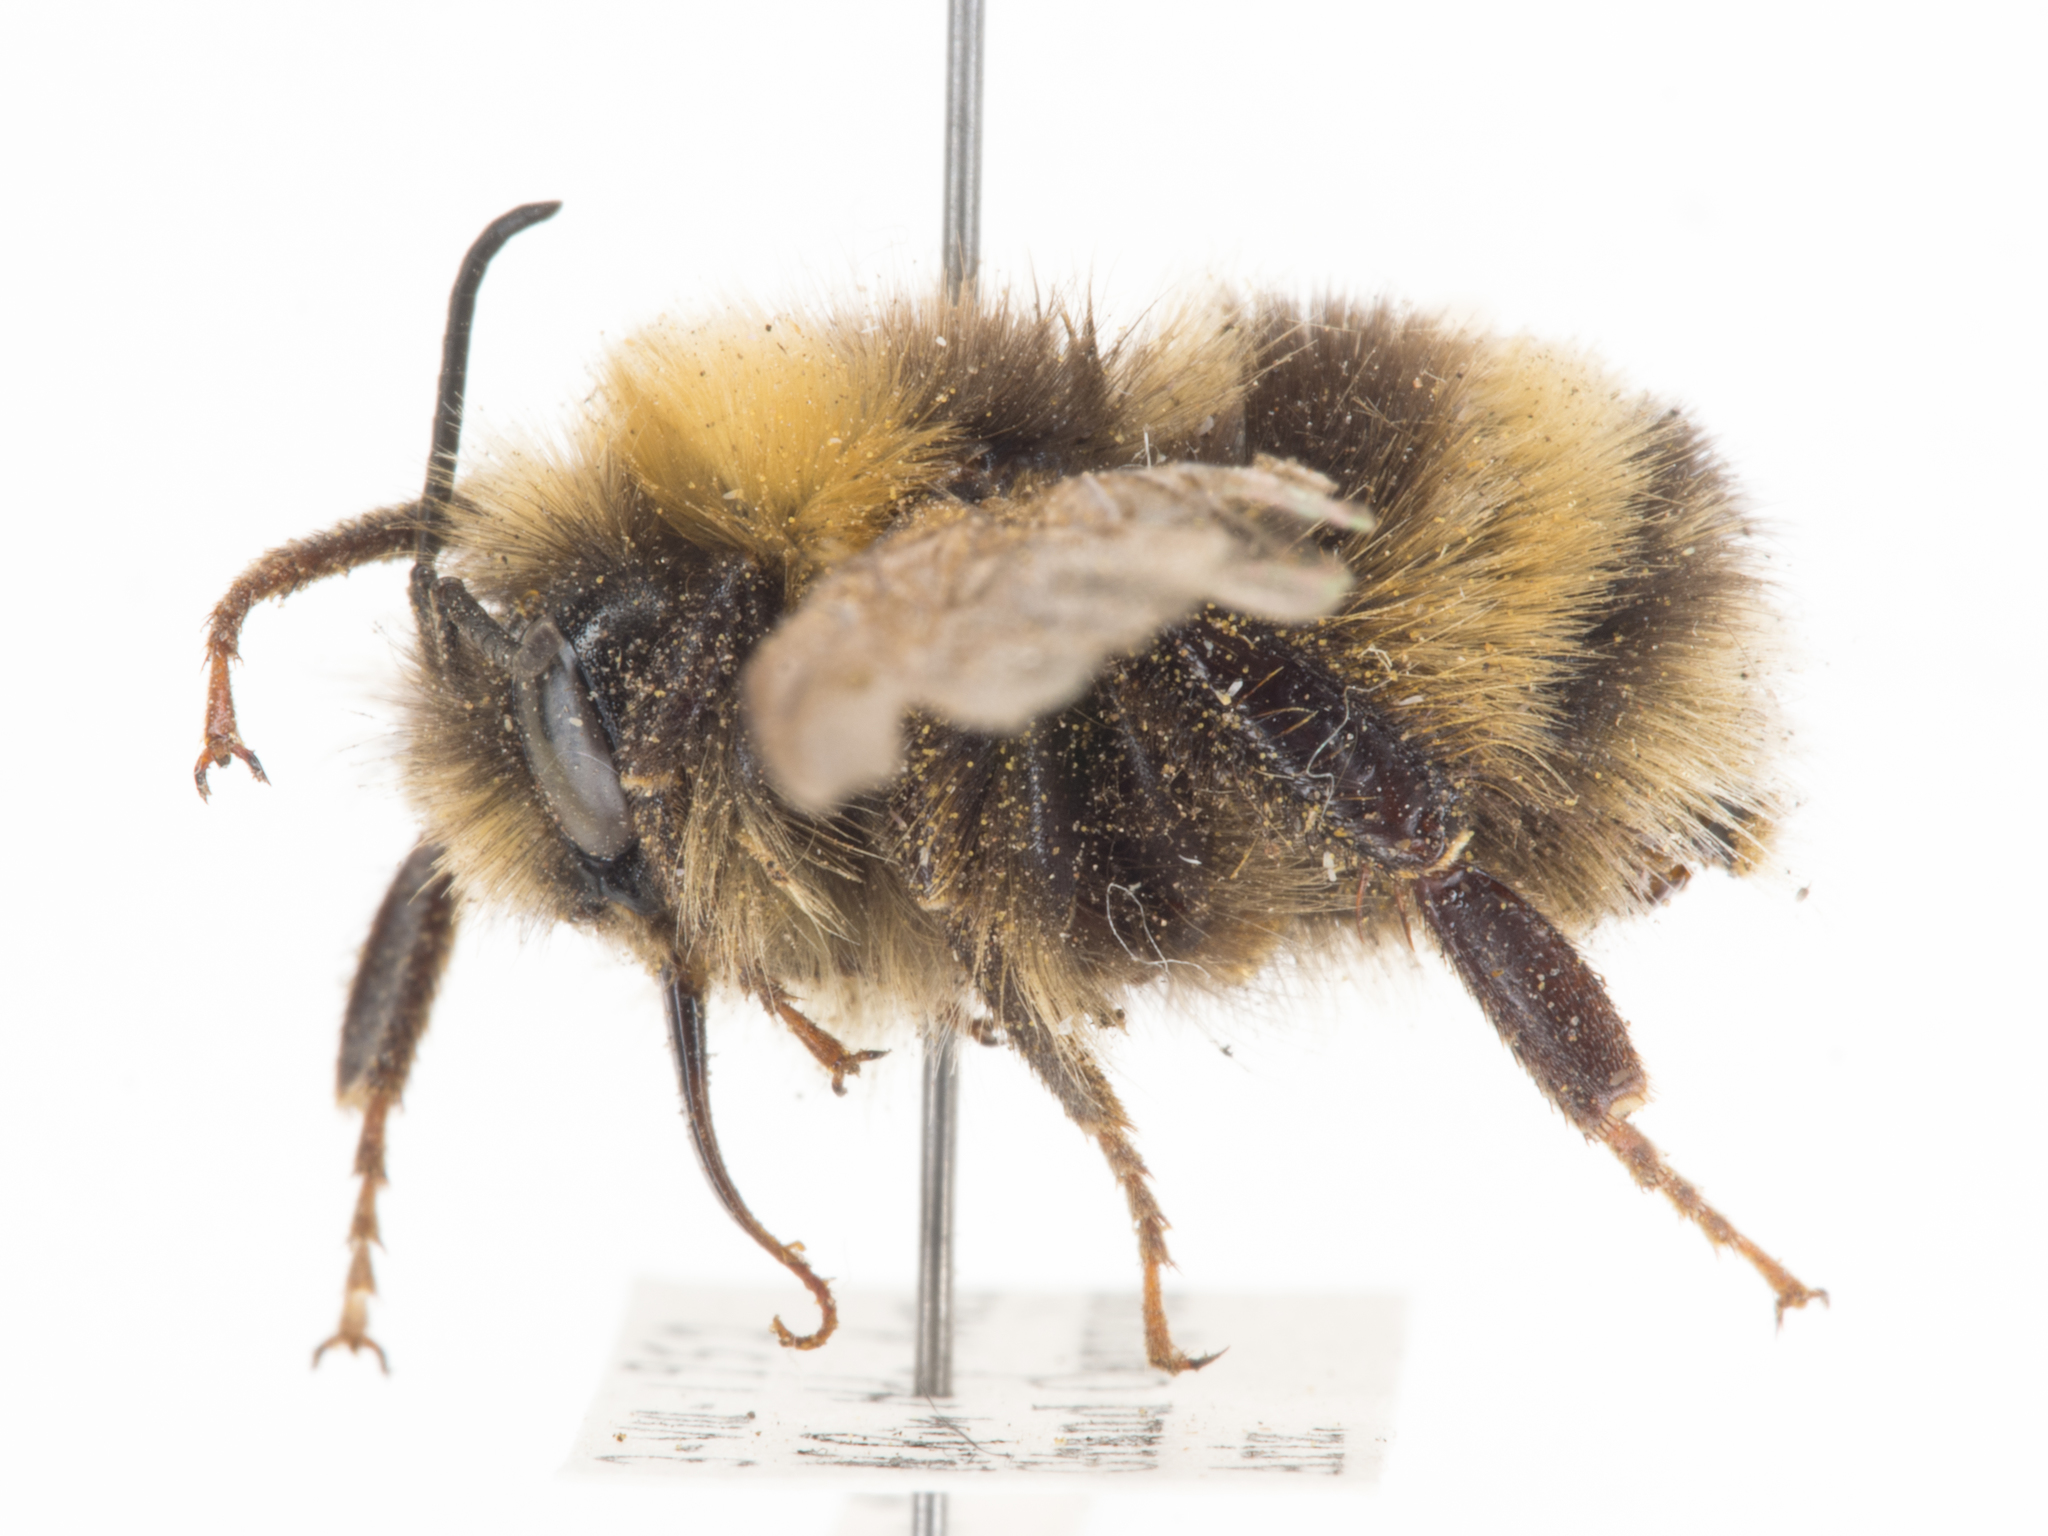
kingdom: Animalia
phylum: Arthropoda
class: Insecta
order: Hymenoptera
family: Apidae
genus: Bombus
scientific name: Bombus occidentalis
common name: Western bumble bee
